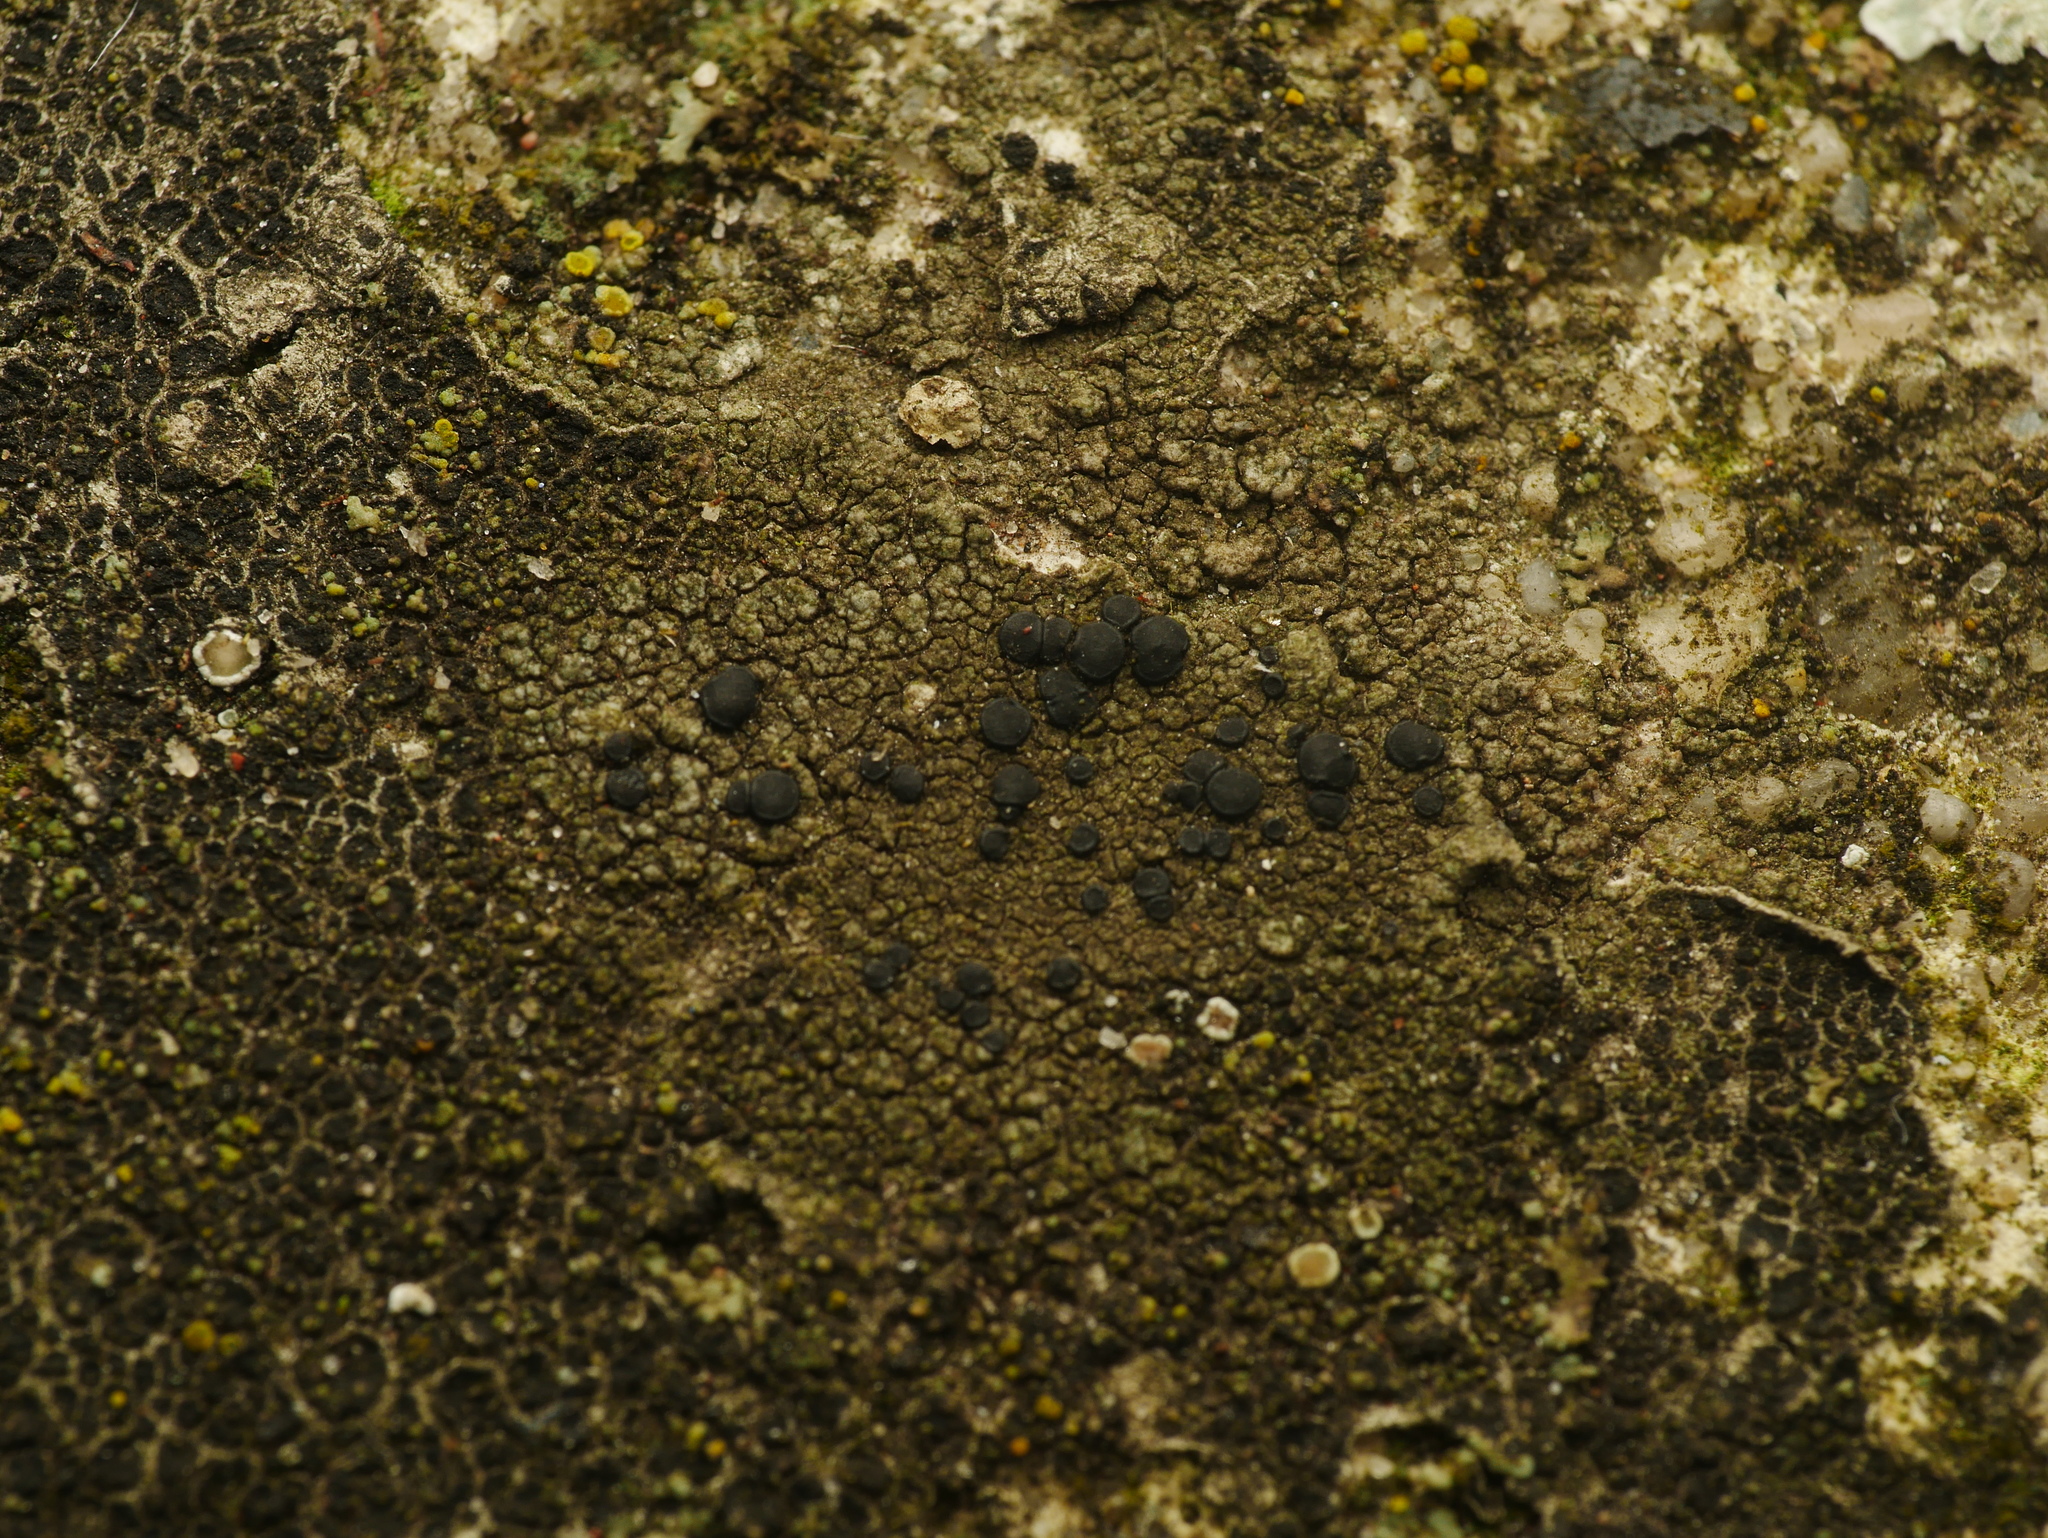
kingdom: Fungi
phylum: Ascomycota
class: Lecanoromycetes
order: Lecanorales
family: Lecanoraceae
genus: Lecidella
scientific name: Lecidella stigmatea
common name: Limestone disc lichen
